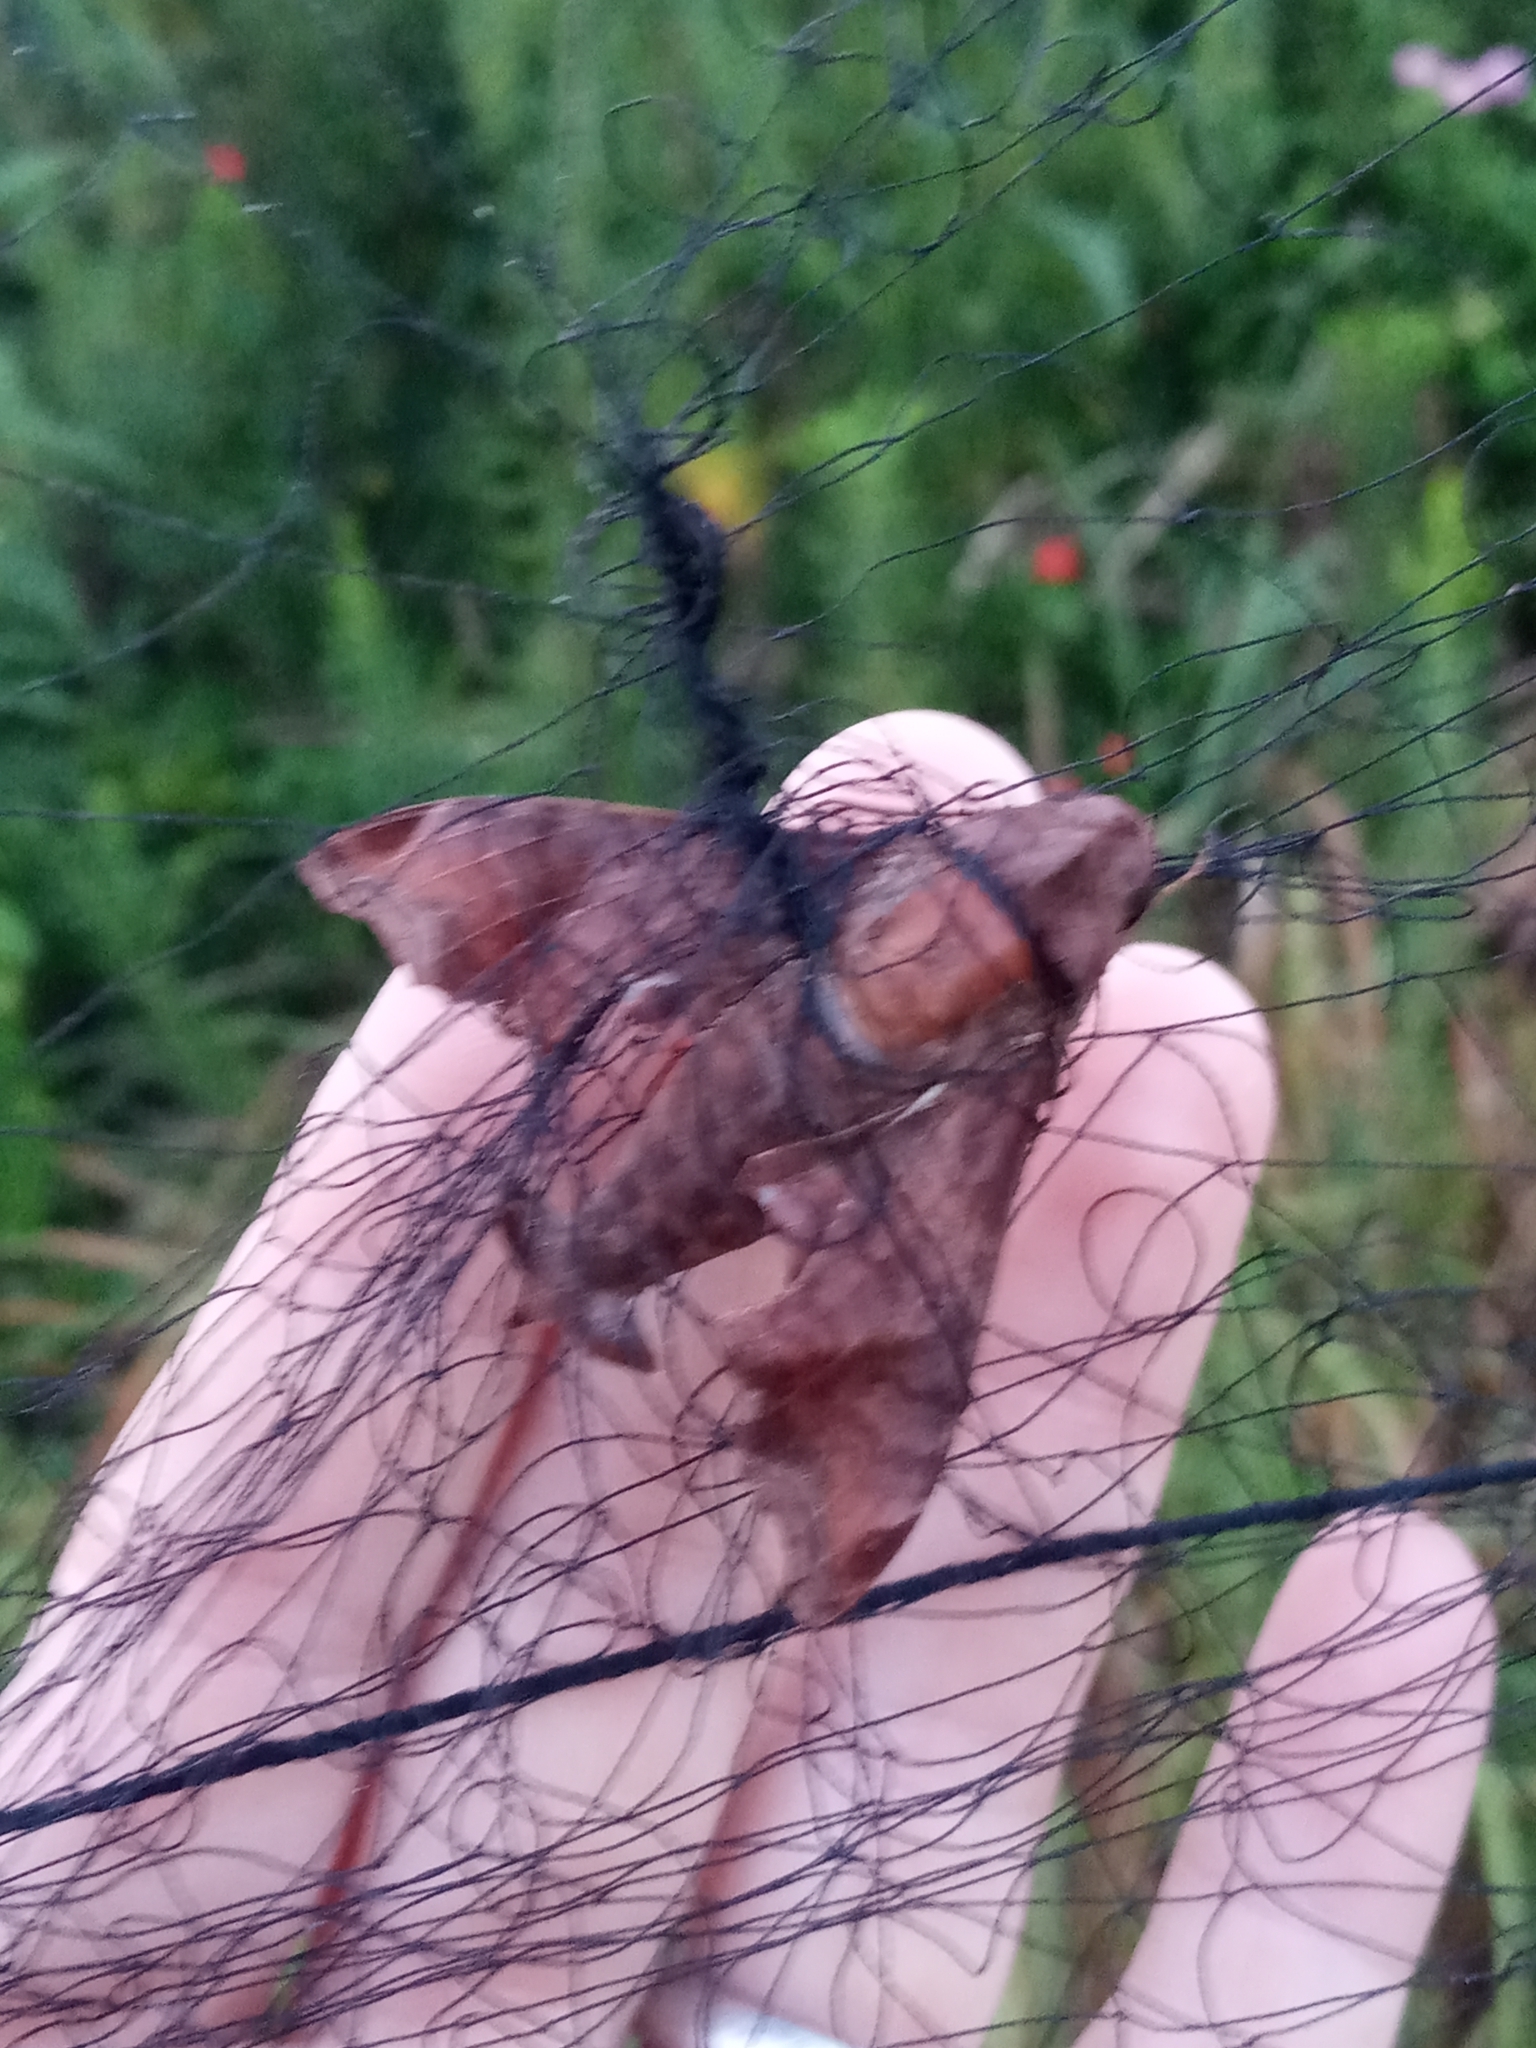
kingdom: Animalia
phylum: Arthropoda
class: Insecta
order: Lepidoptera
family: Sphingidae
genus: Enyo
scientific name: Enyo lugubris
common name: Mournful sphinx
